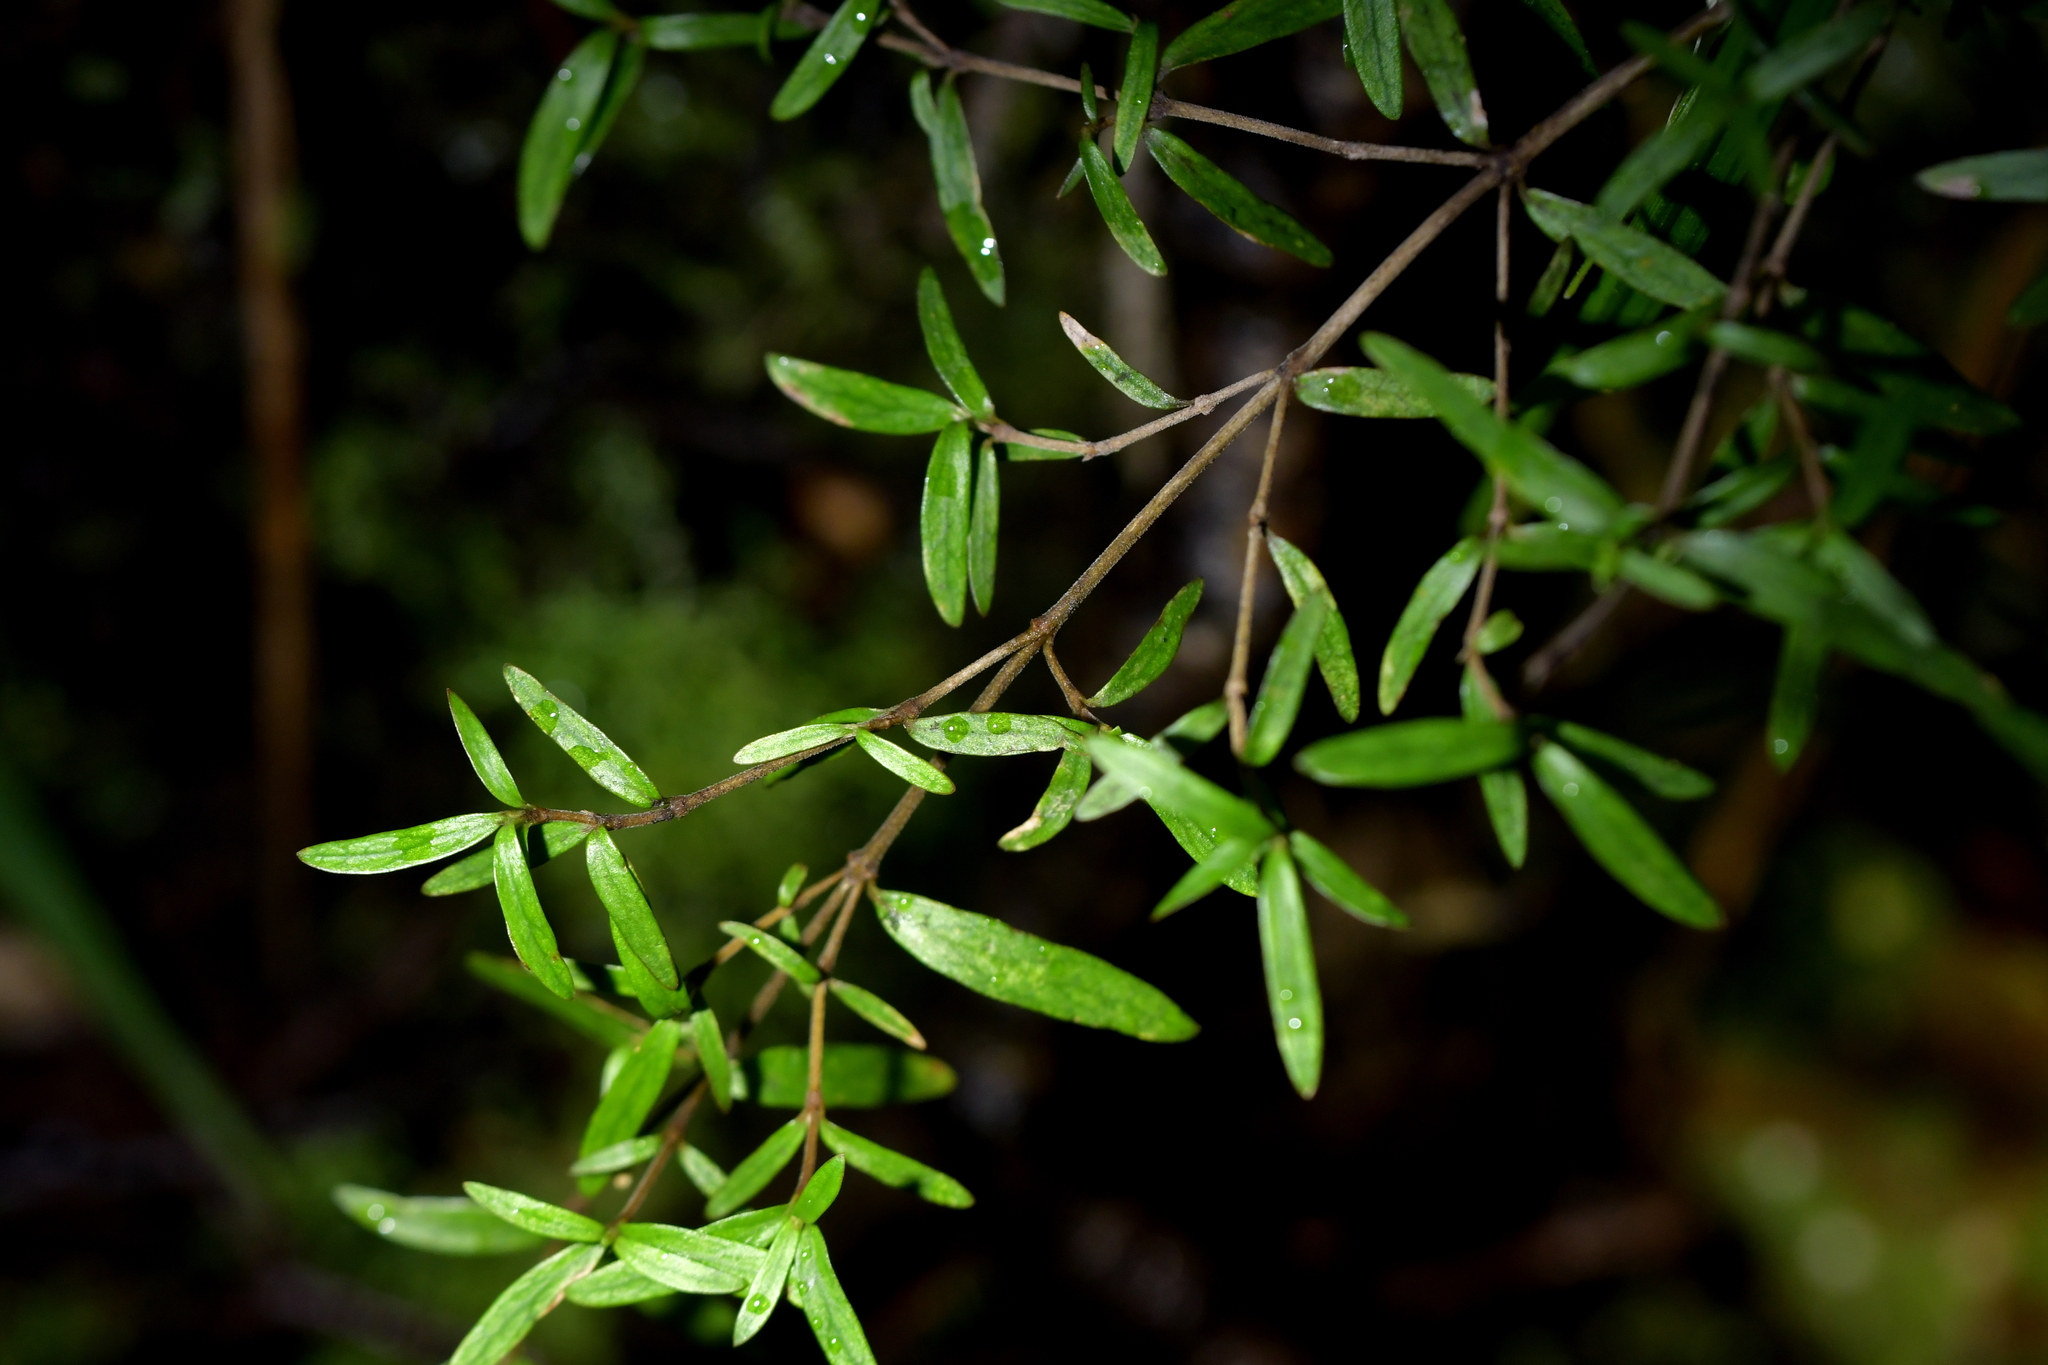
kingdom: Plantae
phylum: Tracheophyta
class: Magnoliopsida
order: Gentianales
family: Rubiaceae
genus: Coprosma
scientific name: Coprosma linariifolia
